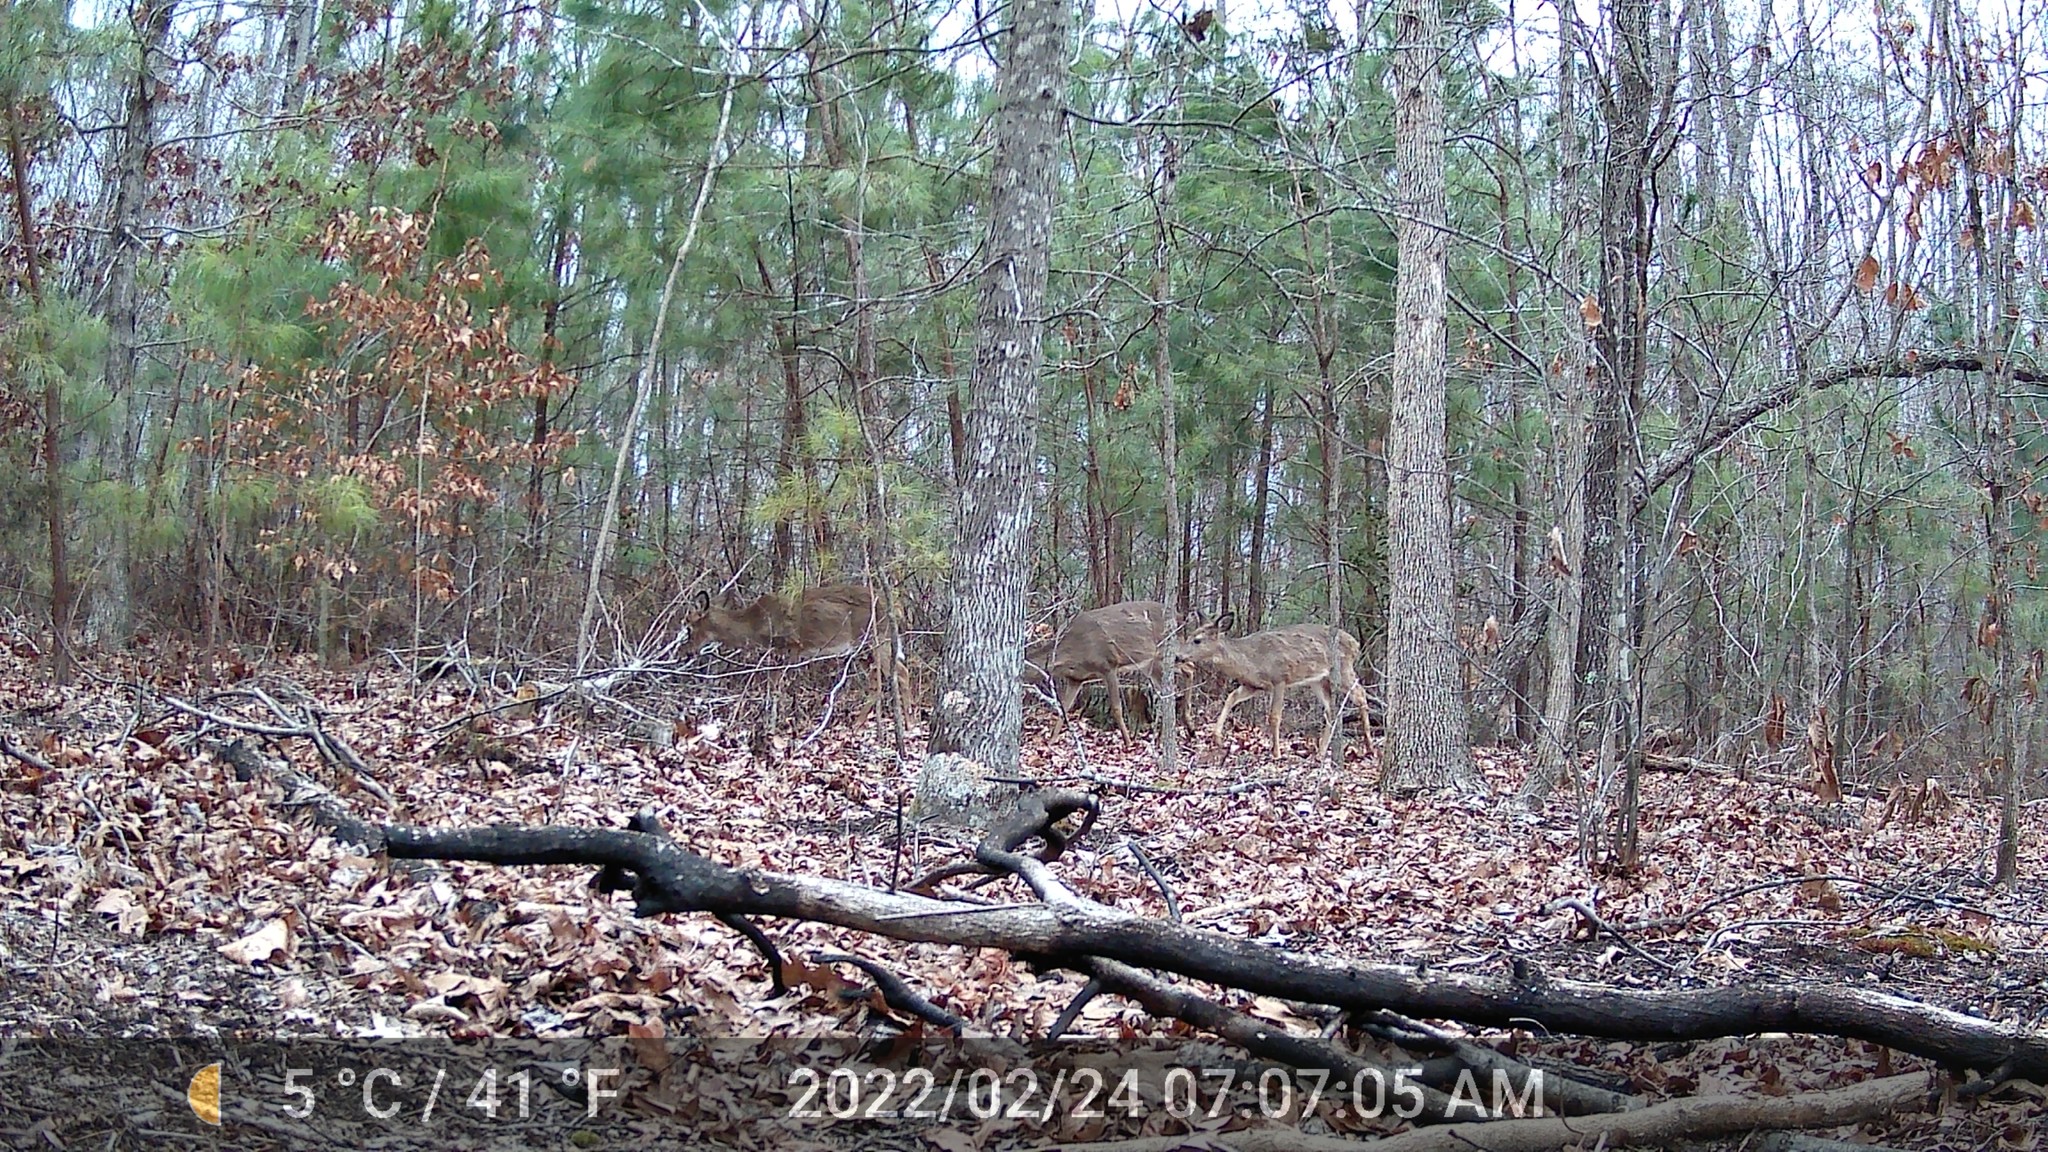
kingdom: Animalia
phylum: Chordata
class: Mammalia
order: Artiodactyla
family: Cervidae
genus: Odocoileus
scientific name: Odocoileus virginianus
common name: White-tailed deer
